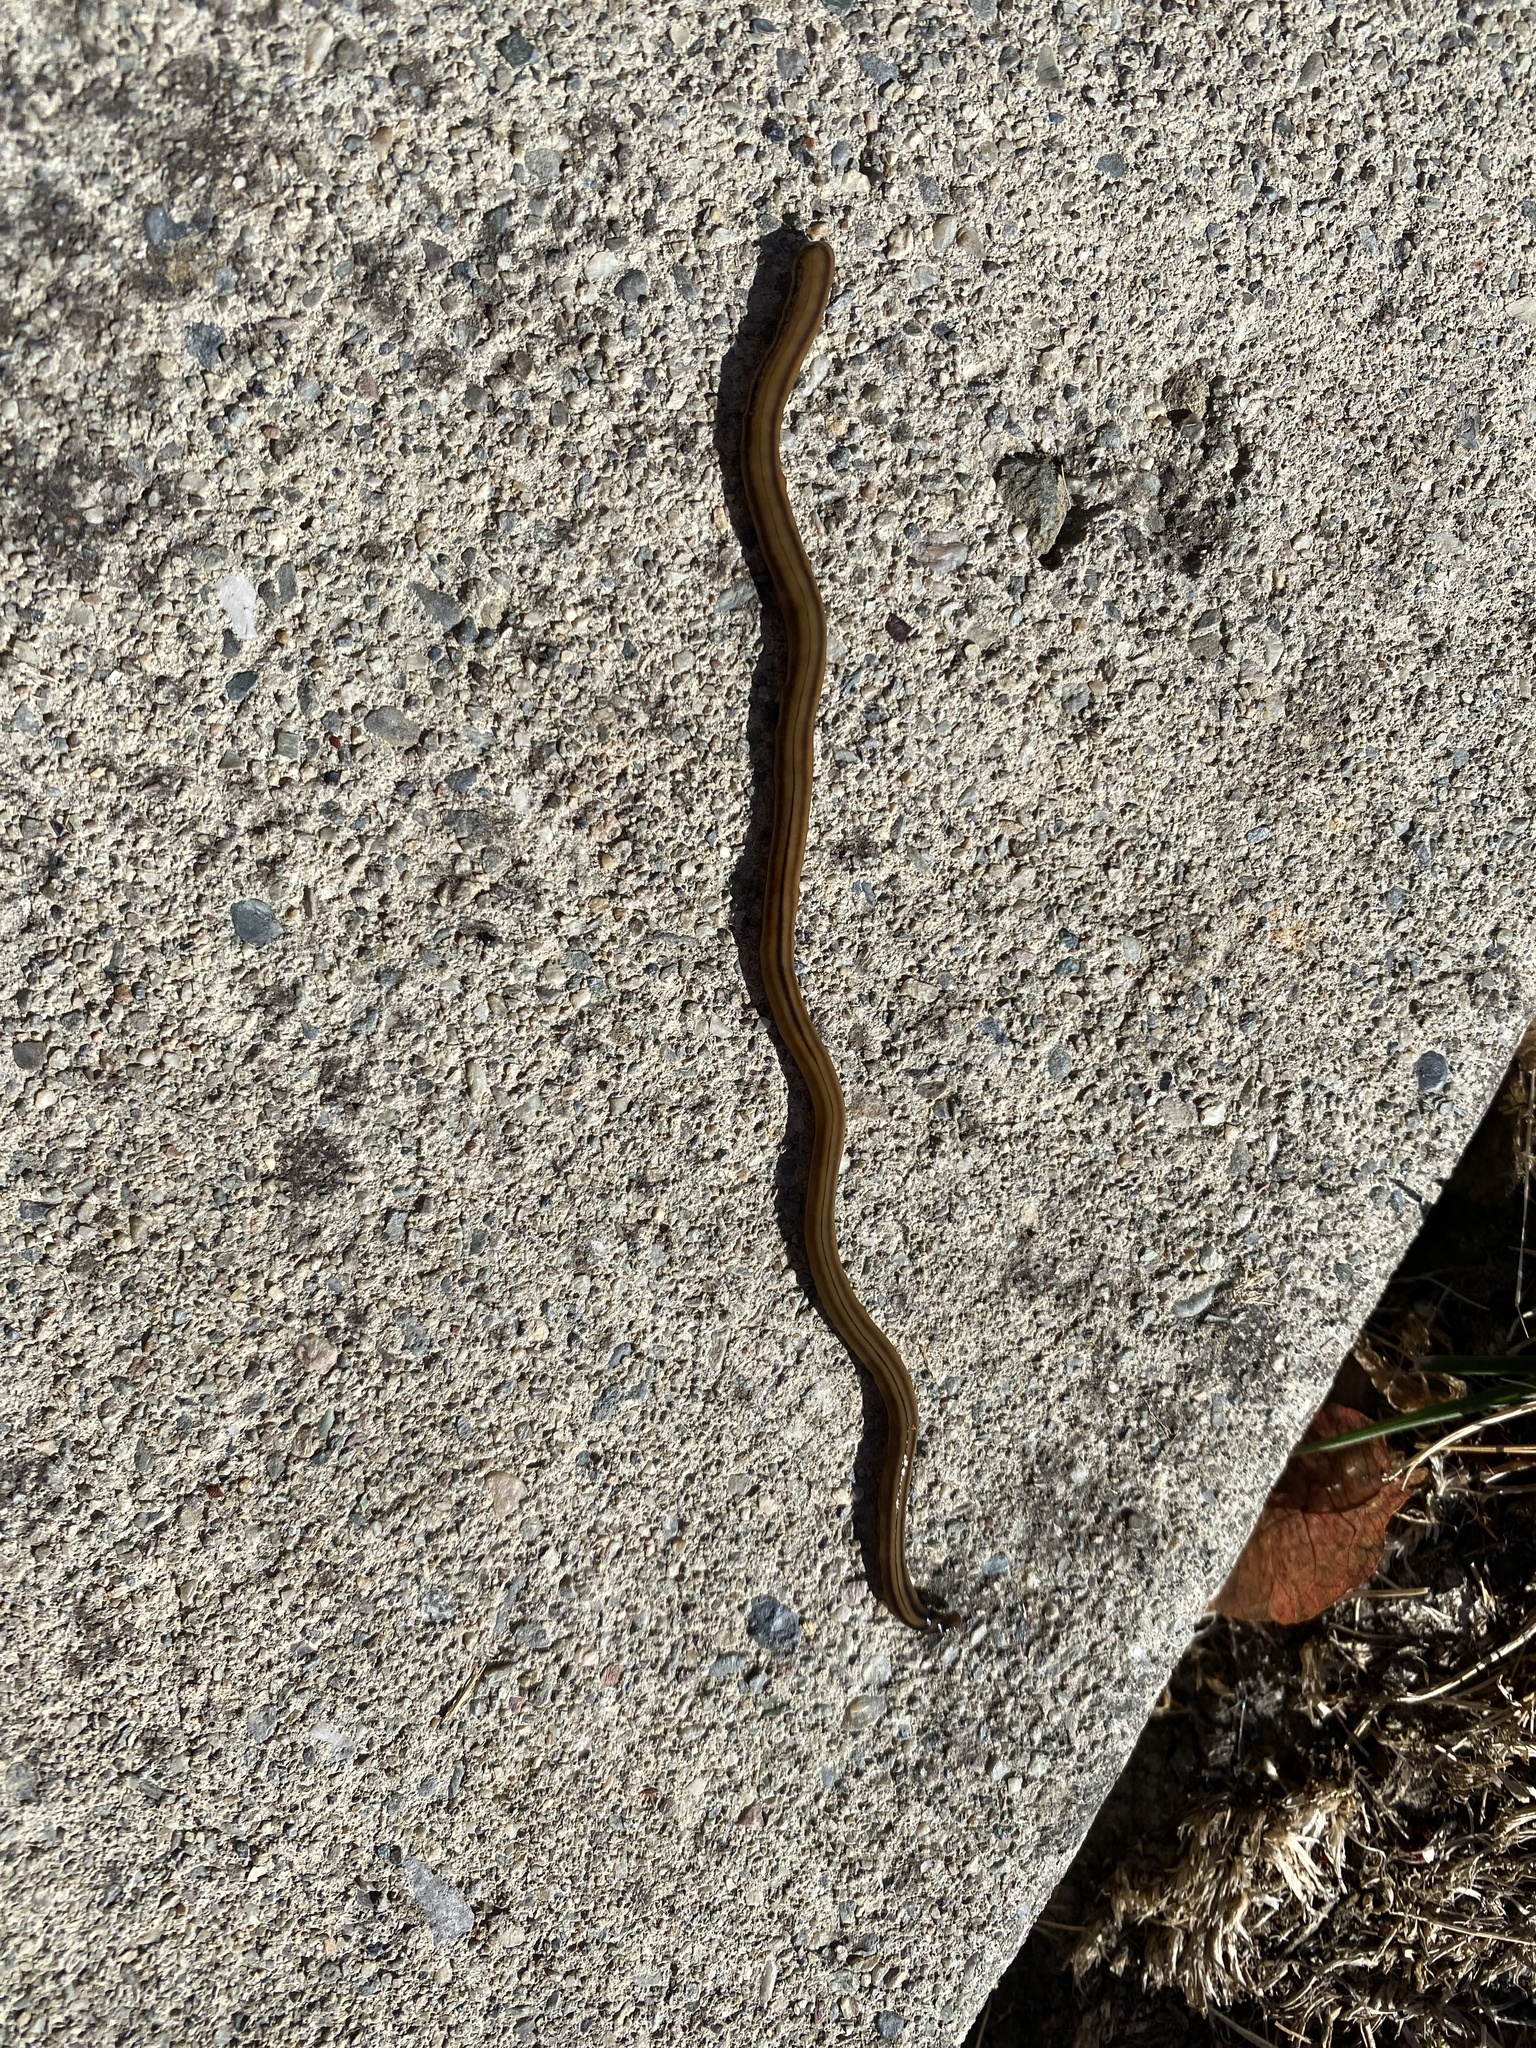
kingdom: Animalia
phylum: Platyhelminthes
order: Tricladida
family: Geoplanidae
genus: Bipalium
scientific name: Bipalium kewense
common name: Hammerhead flatworm
